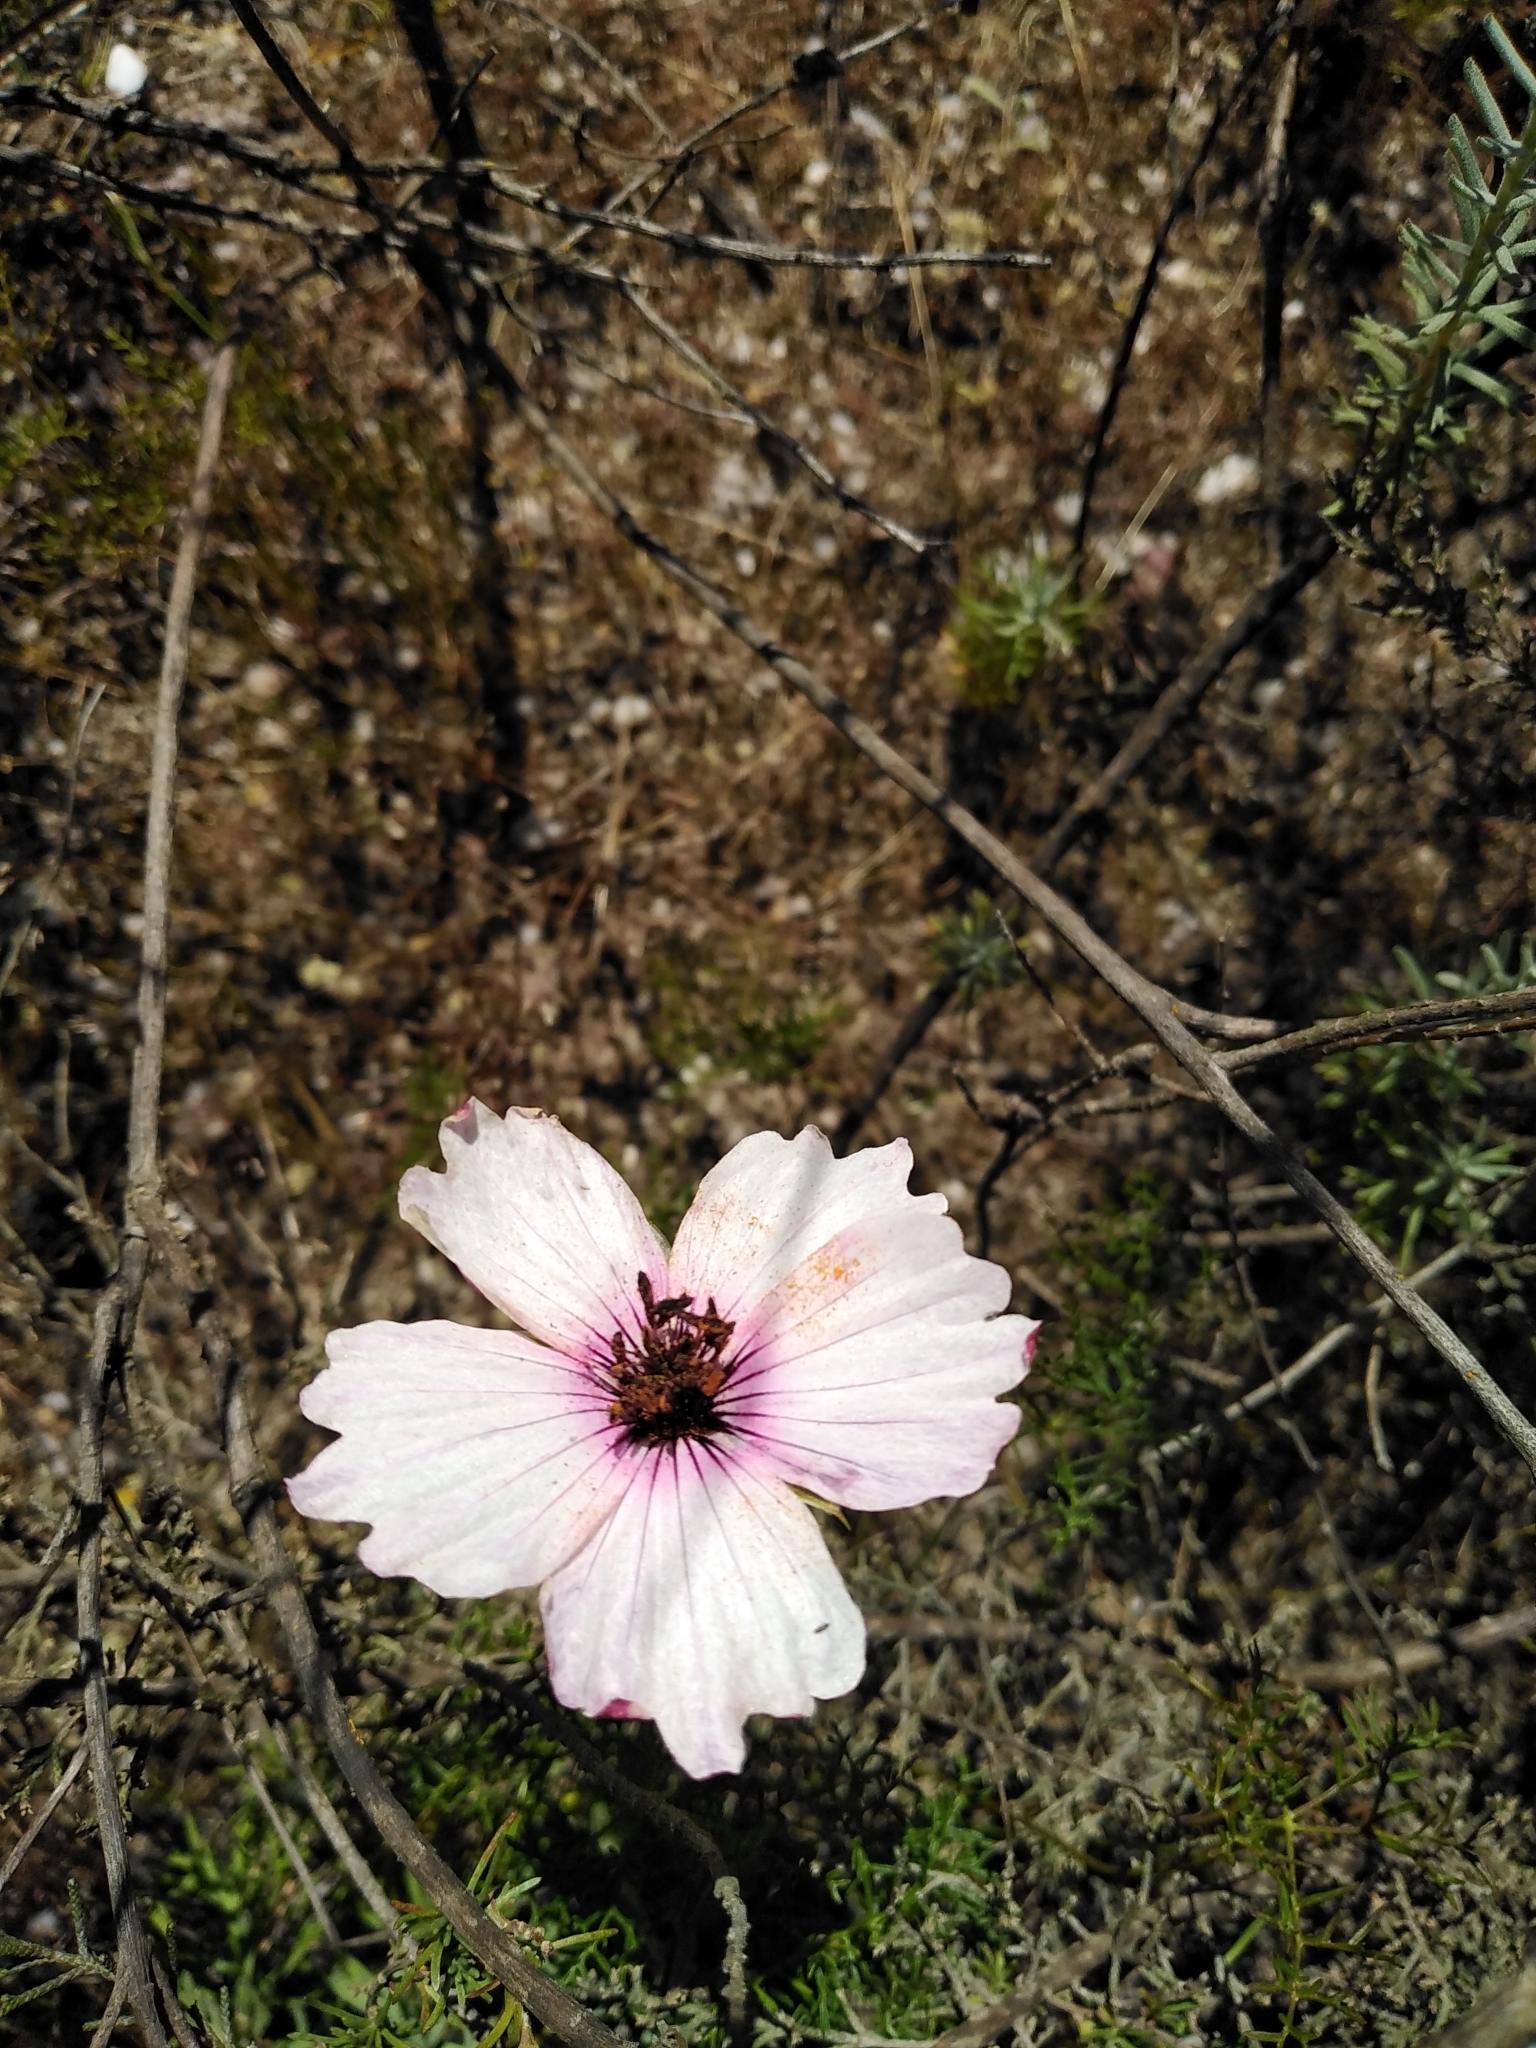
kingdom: Plantae
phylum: Tracheophyta
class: Magnoliopsida
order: Geraniales
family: Geraniaceae
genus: Monsonia
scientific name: Monsonia speciosa
